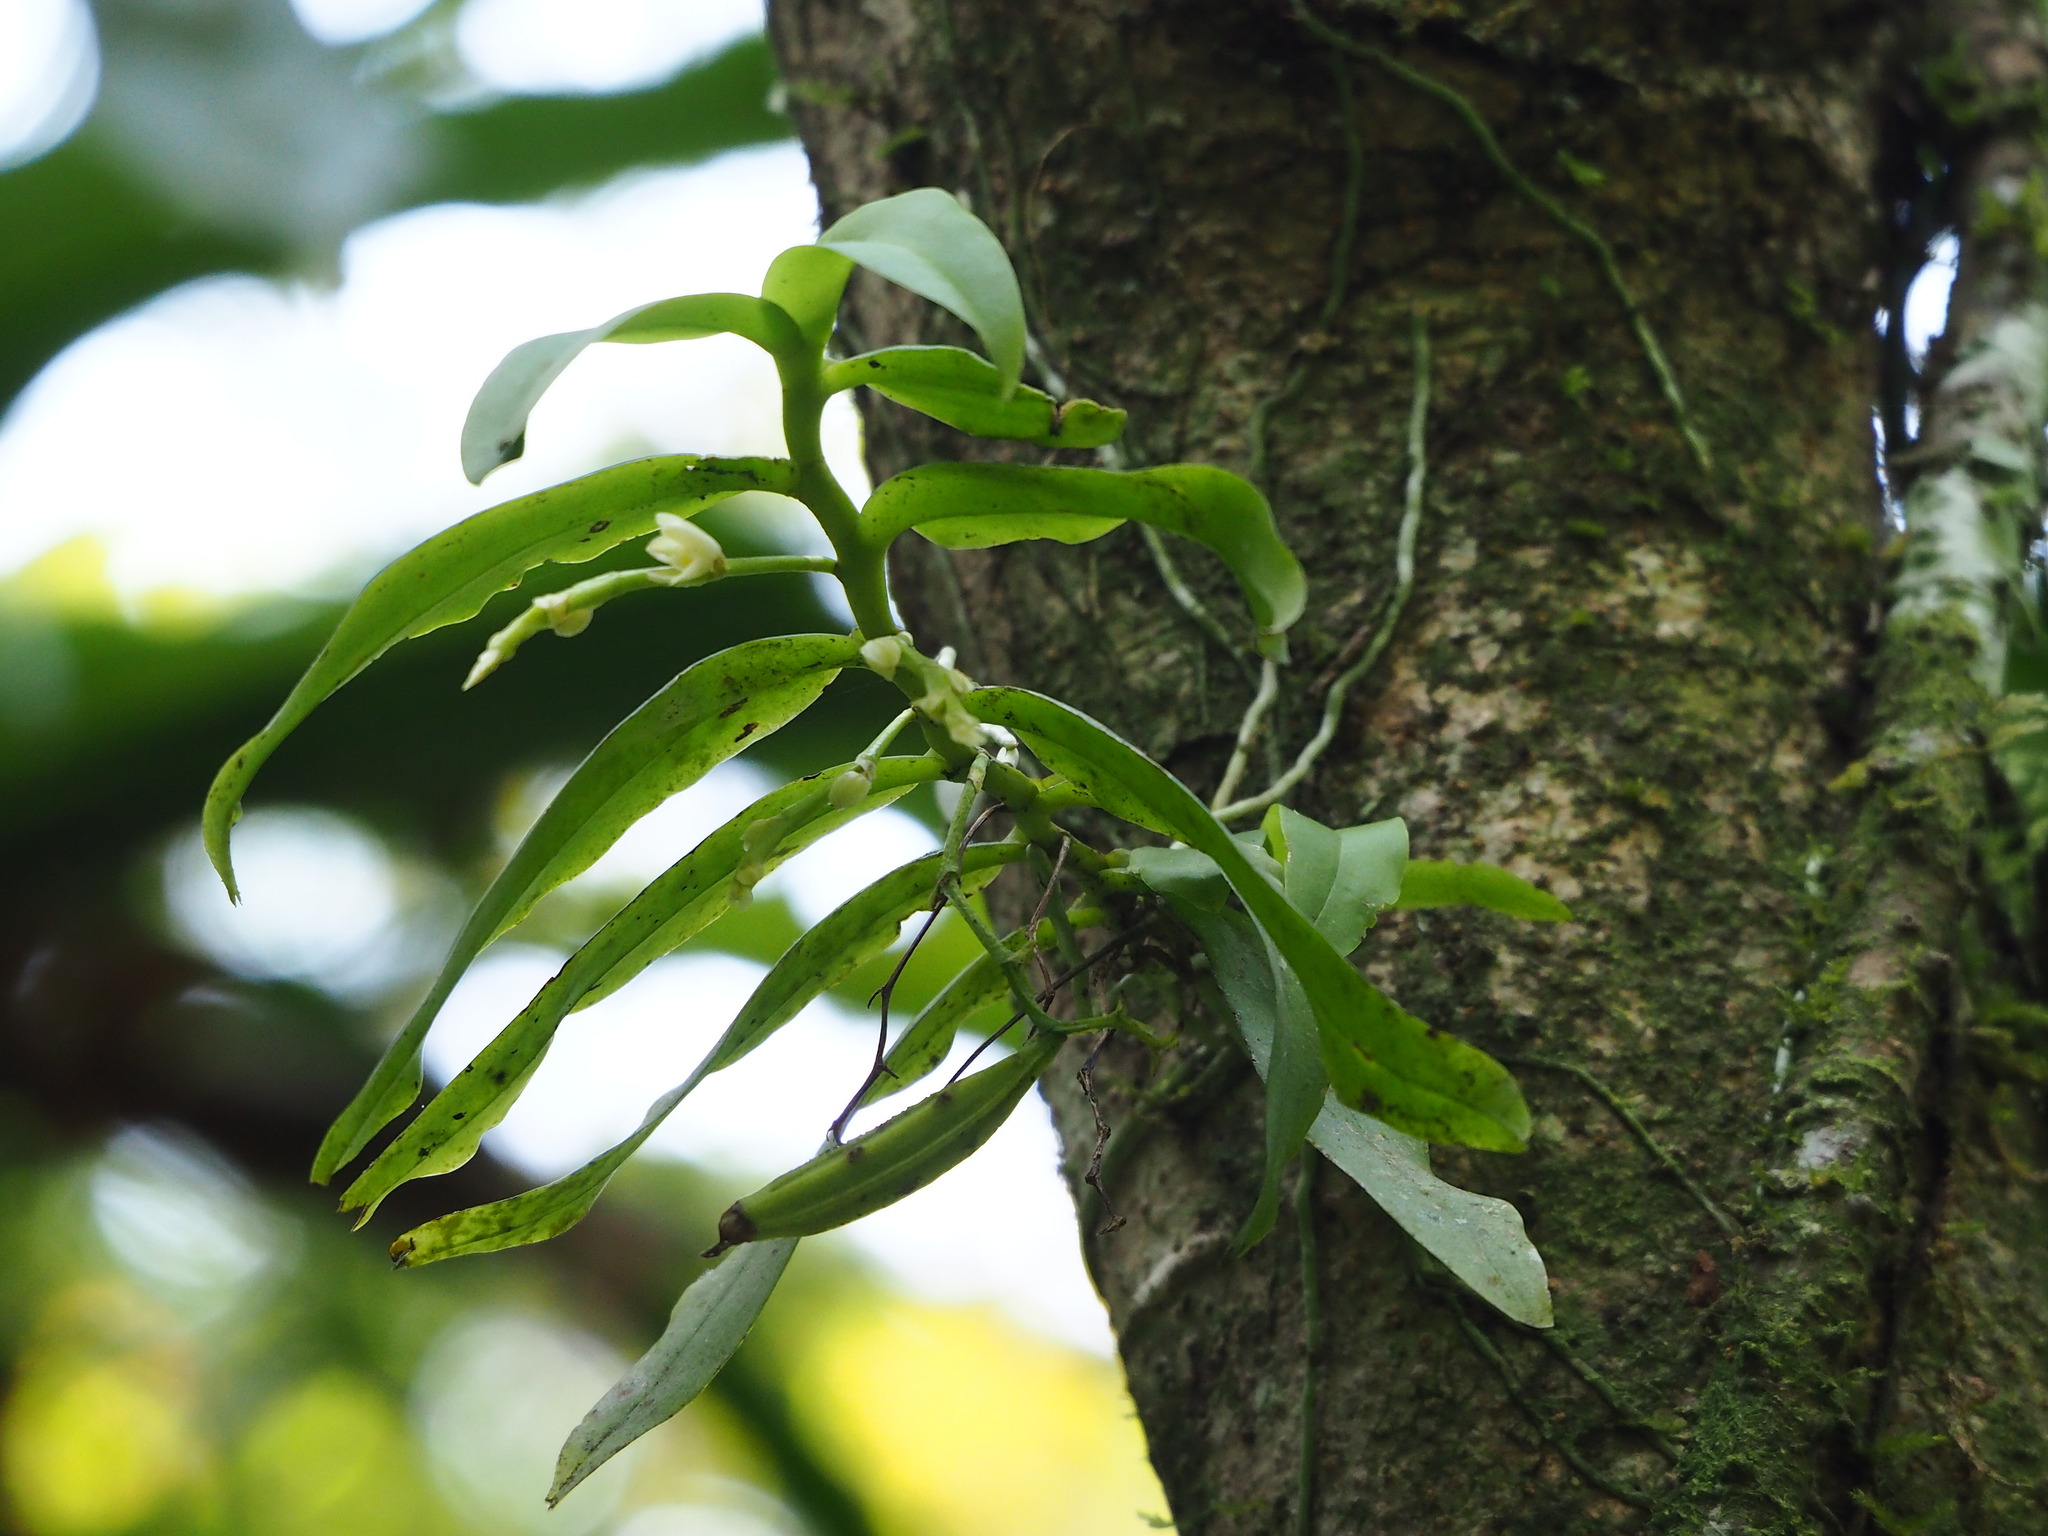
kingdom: Plantae
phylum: Tracheophyta
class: Liliopsida
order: Asparagales
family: Orchidaceae
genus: Diploprora
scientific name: Diploprora championii
